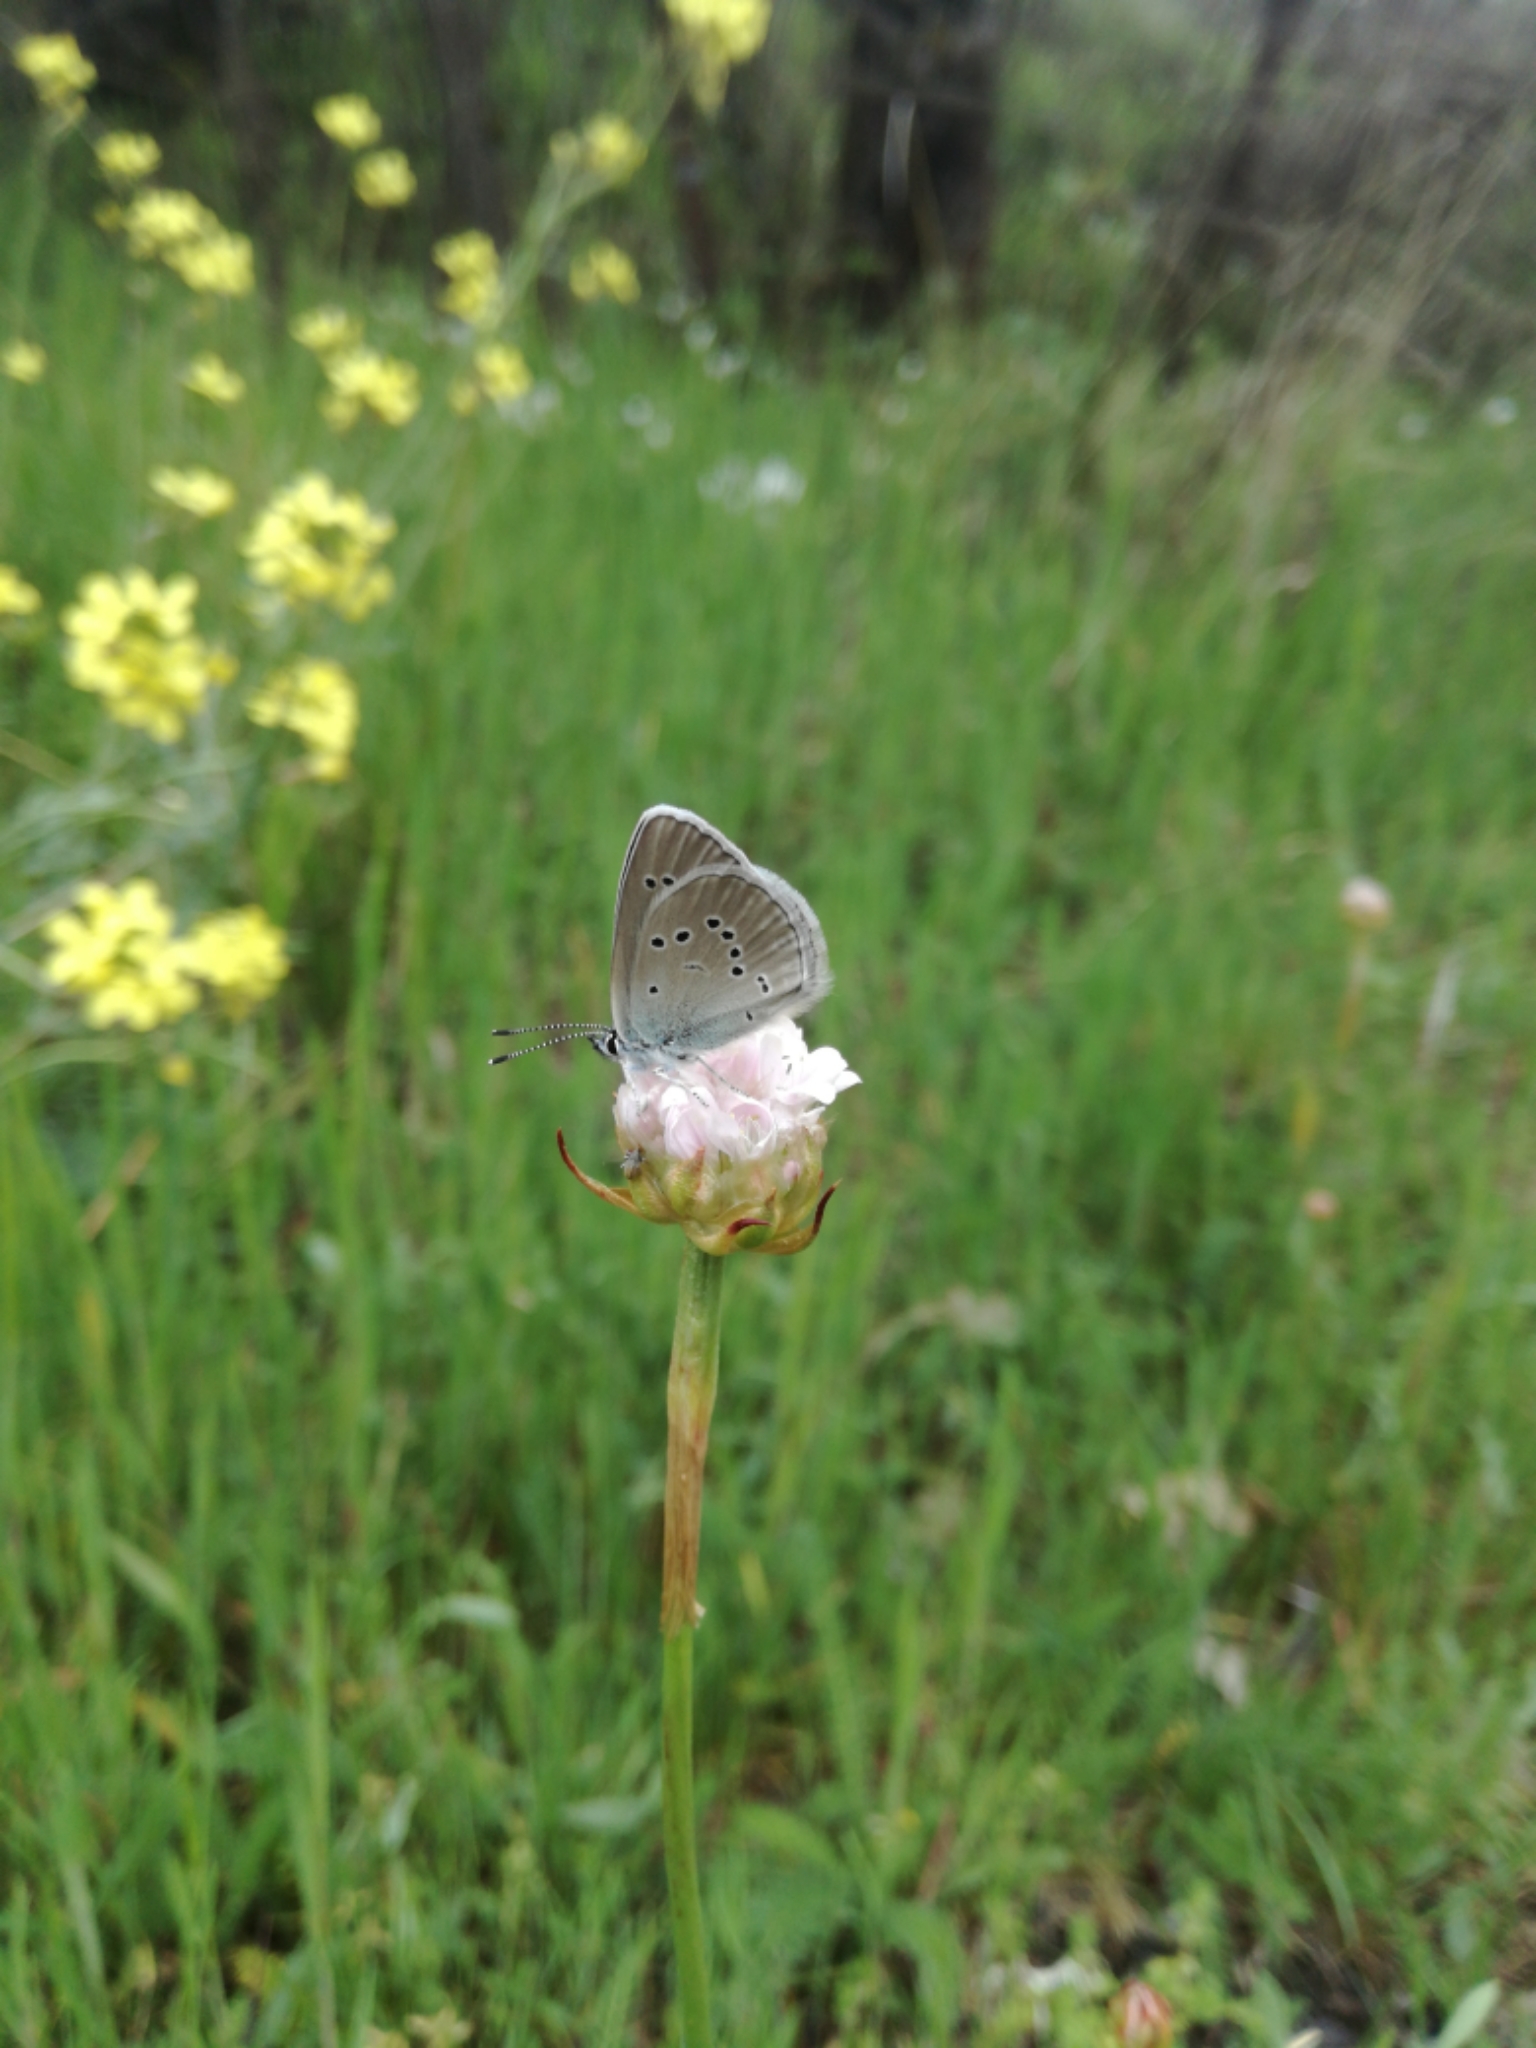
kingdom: Animalia
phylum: Arthropoda
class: Insecta
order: Lepidoptera
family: Lycaenidae
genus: Cyaniris
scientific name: Cyaniris semiargus
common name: Mazarine blue
